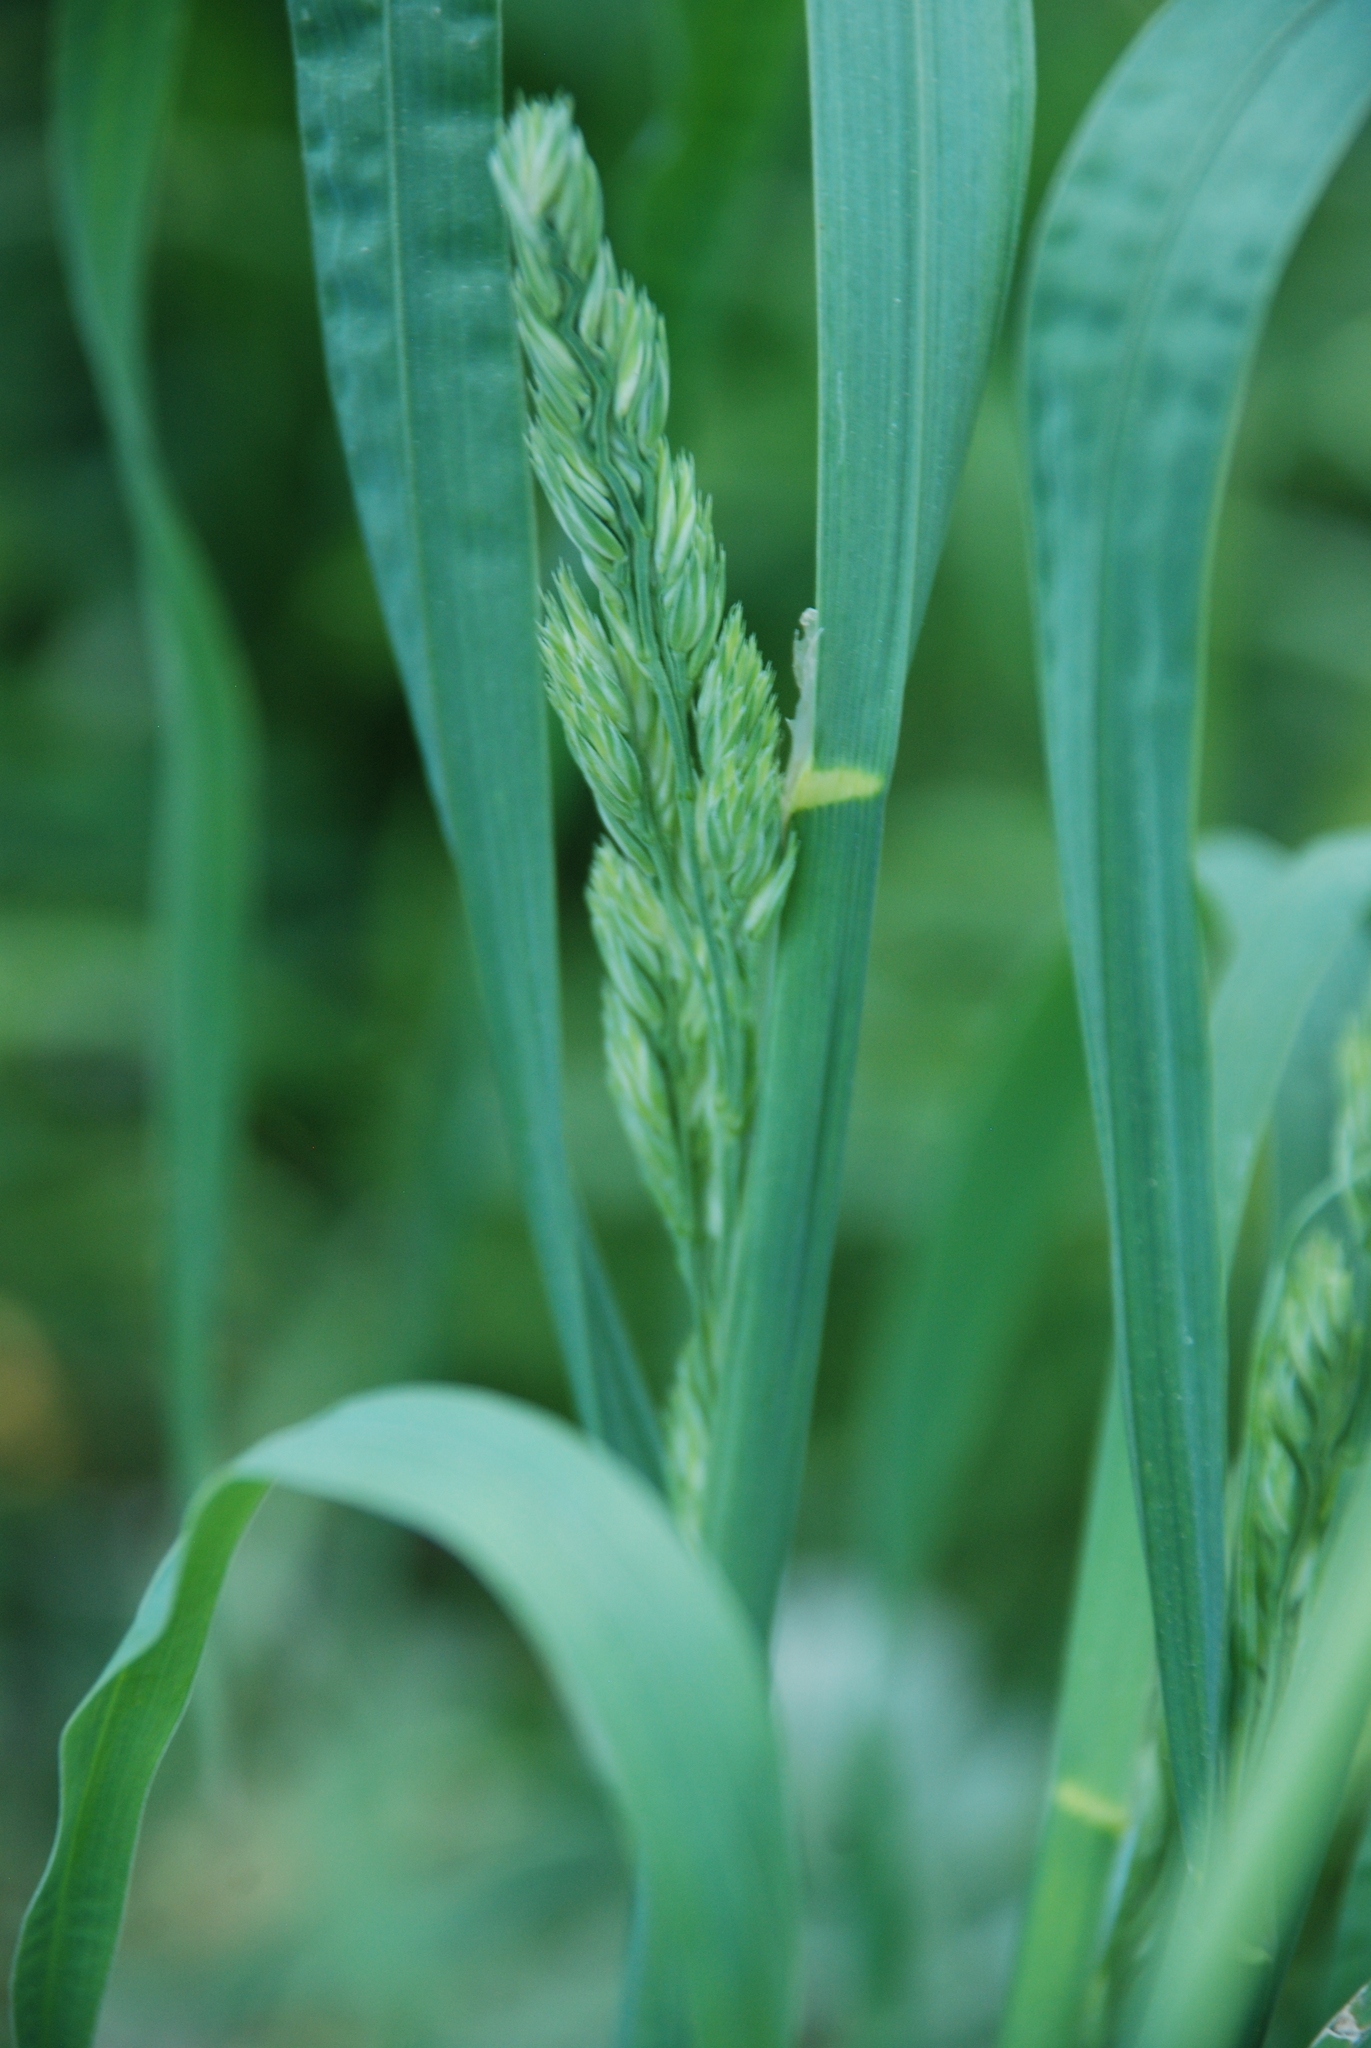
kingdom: Plantae
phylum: Tracheophyta
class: Liliopsida
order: Poales
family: Poaceae
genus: Dactylis
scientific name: Dactylis glomerata
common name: Orchardgrass
